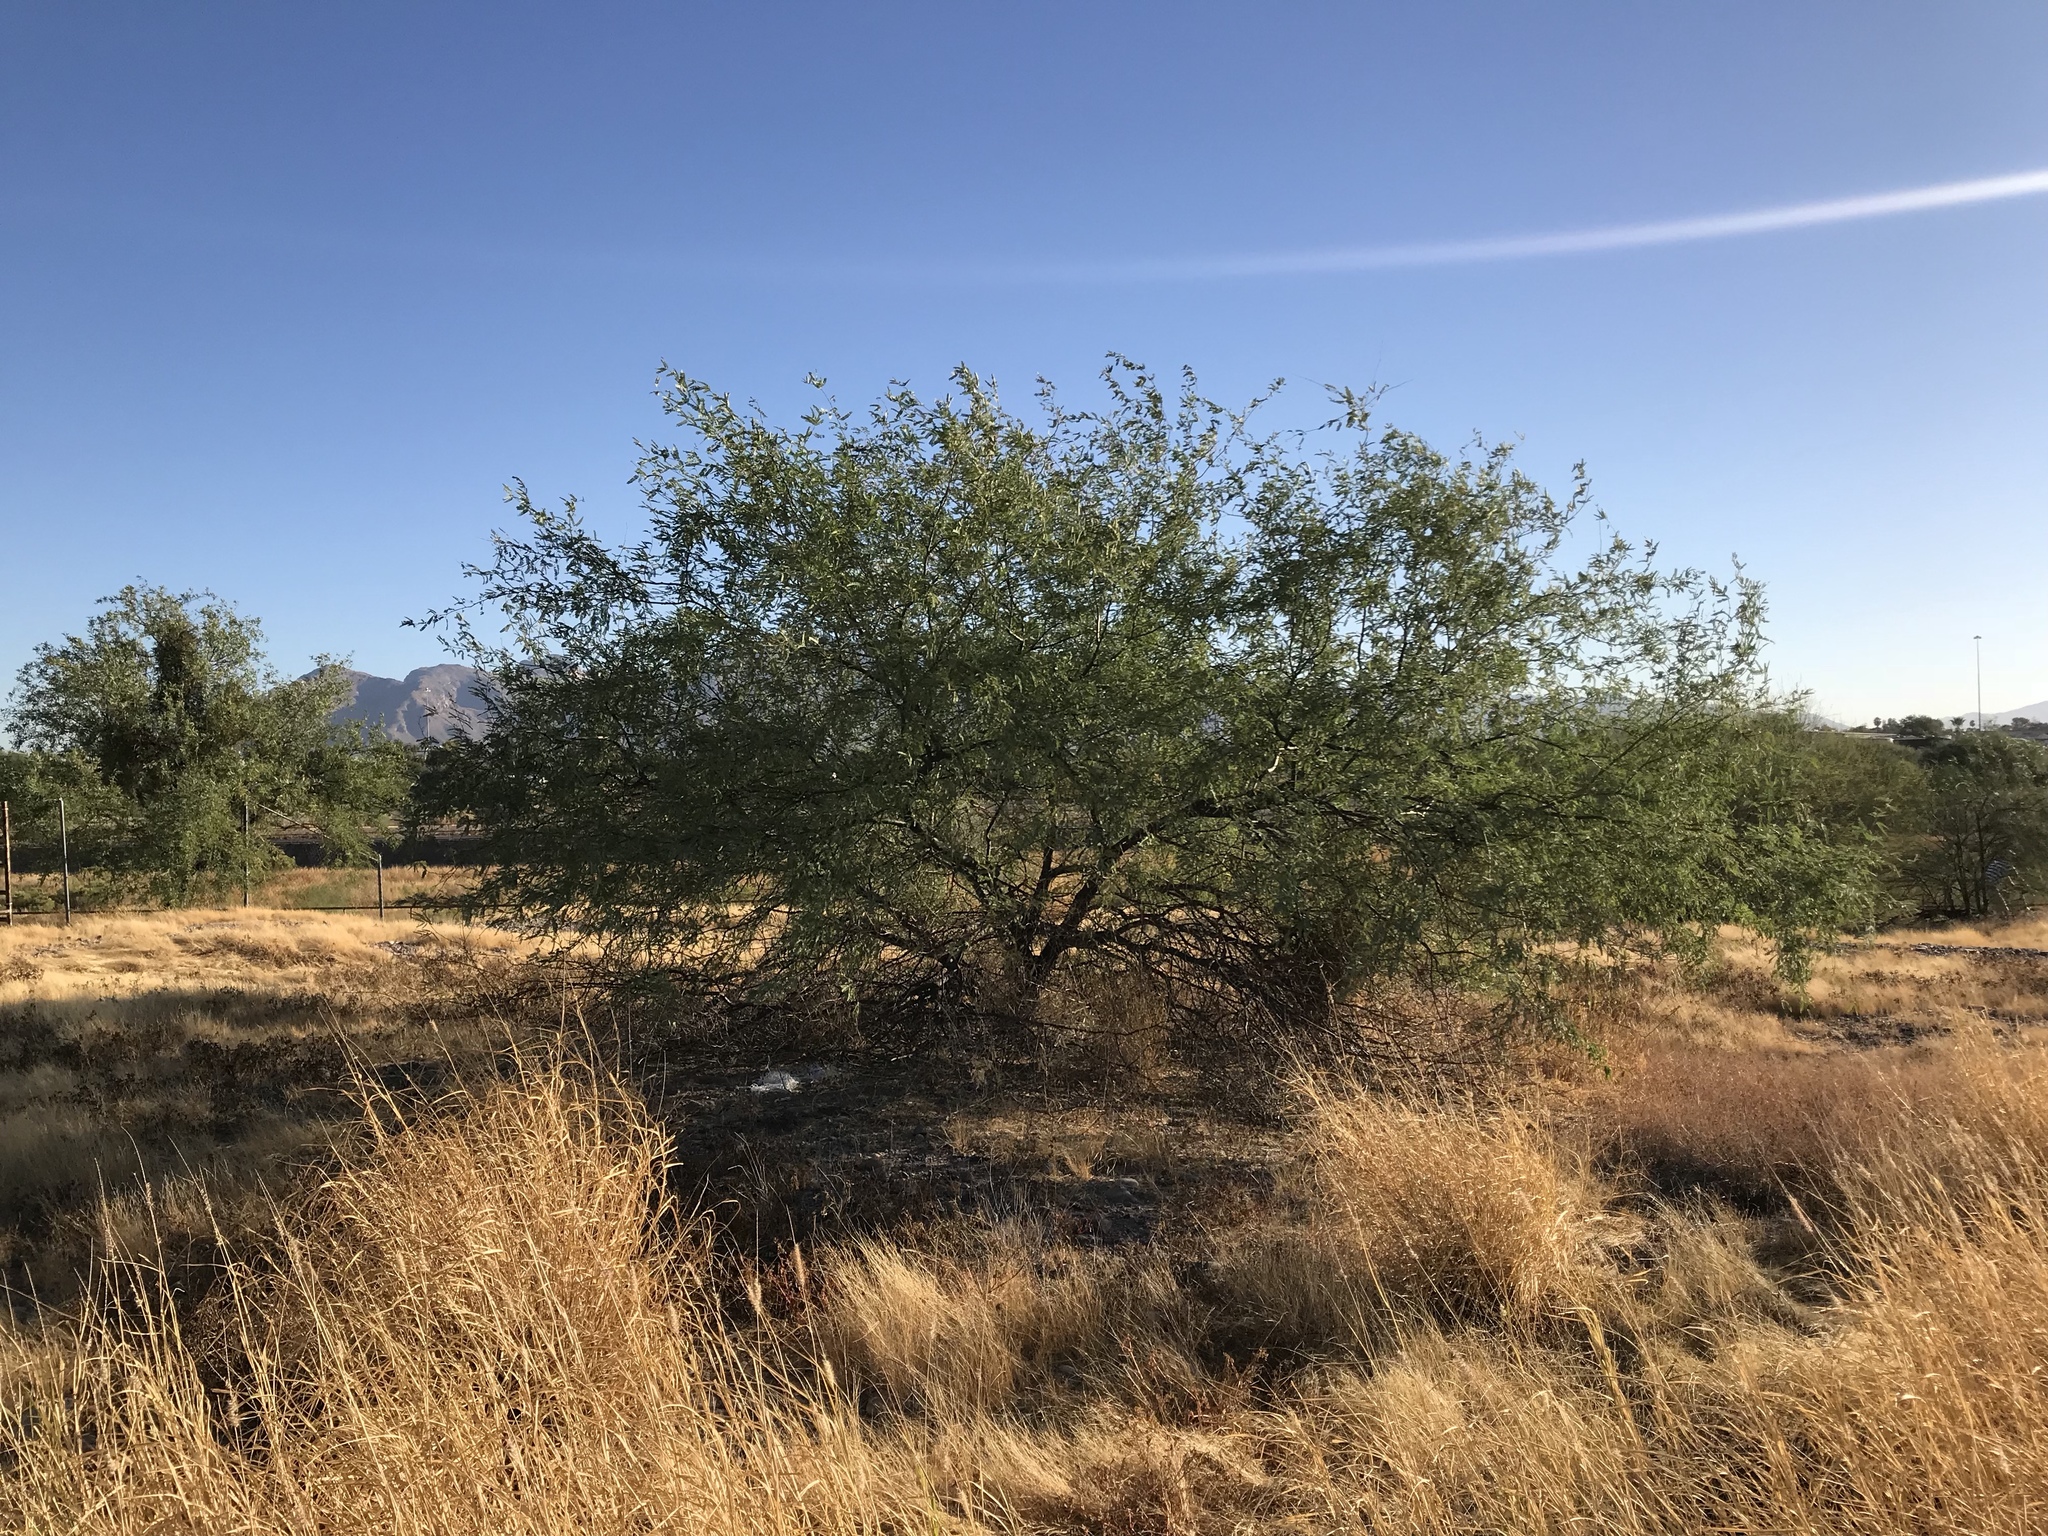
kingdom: Plantae
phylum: Tracheophyta
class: Magnoliopsida
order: Fabales
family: Fabaceae
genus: Prosopis
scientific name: Prosopis velutina
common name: Velvet mesquite
